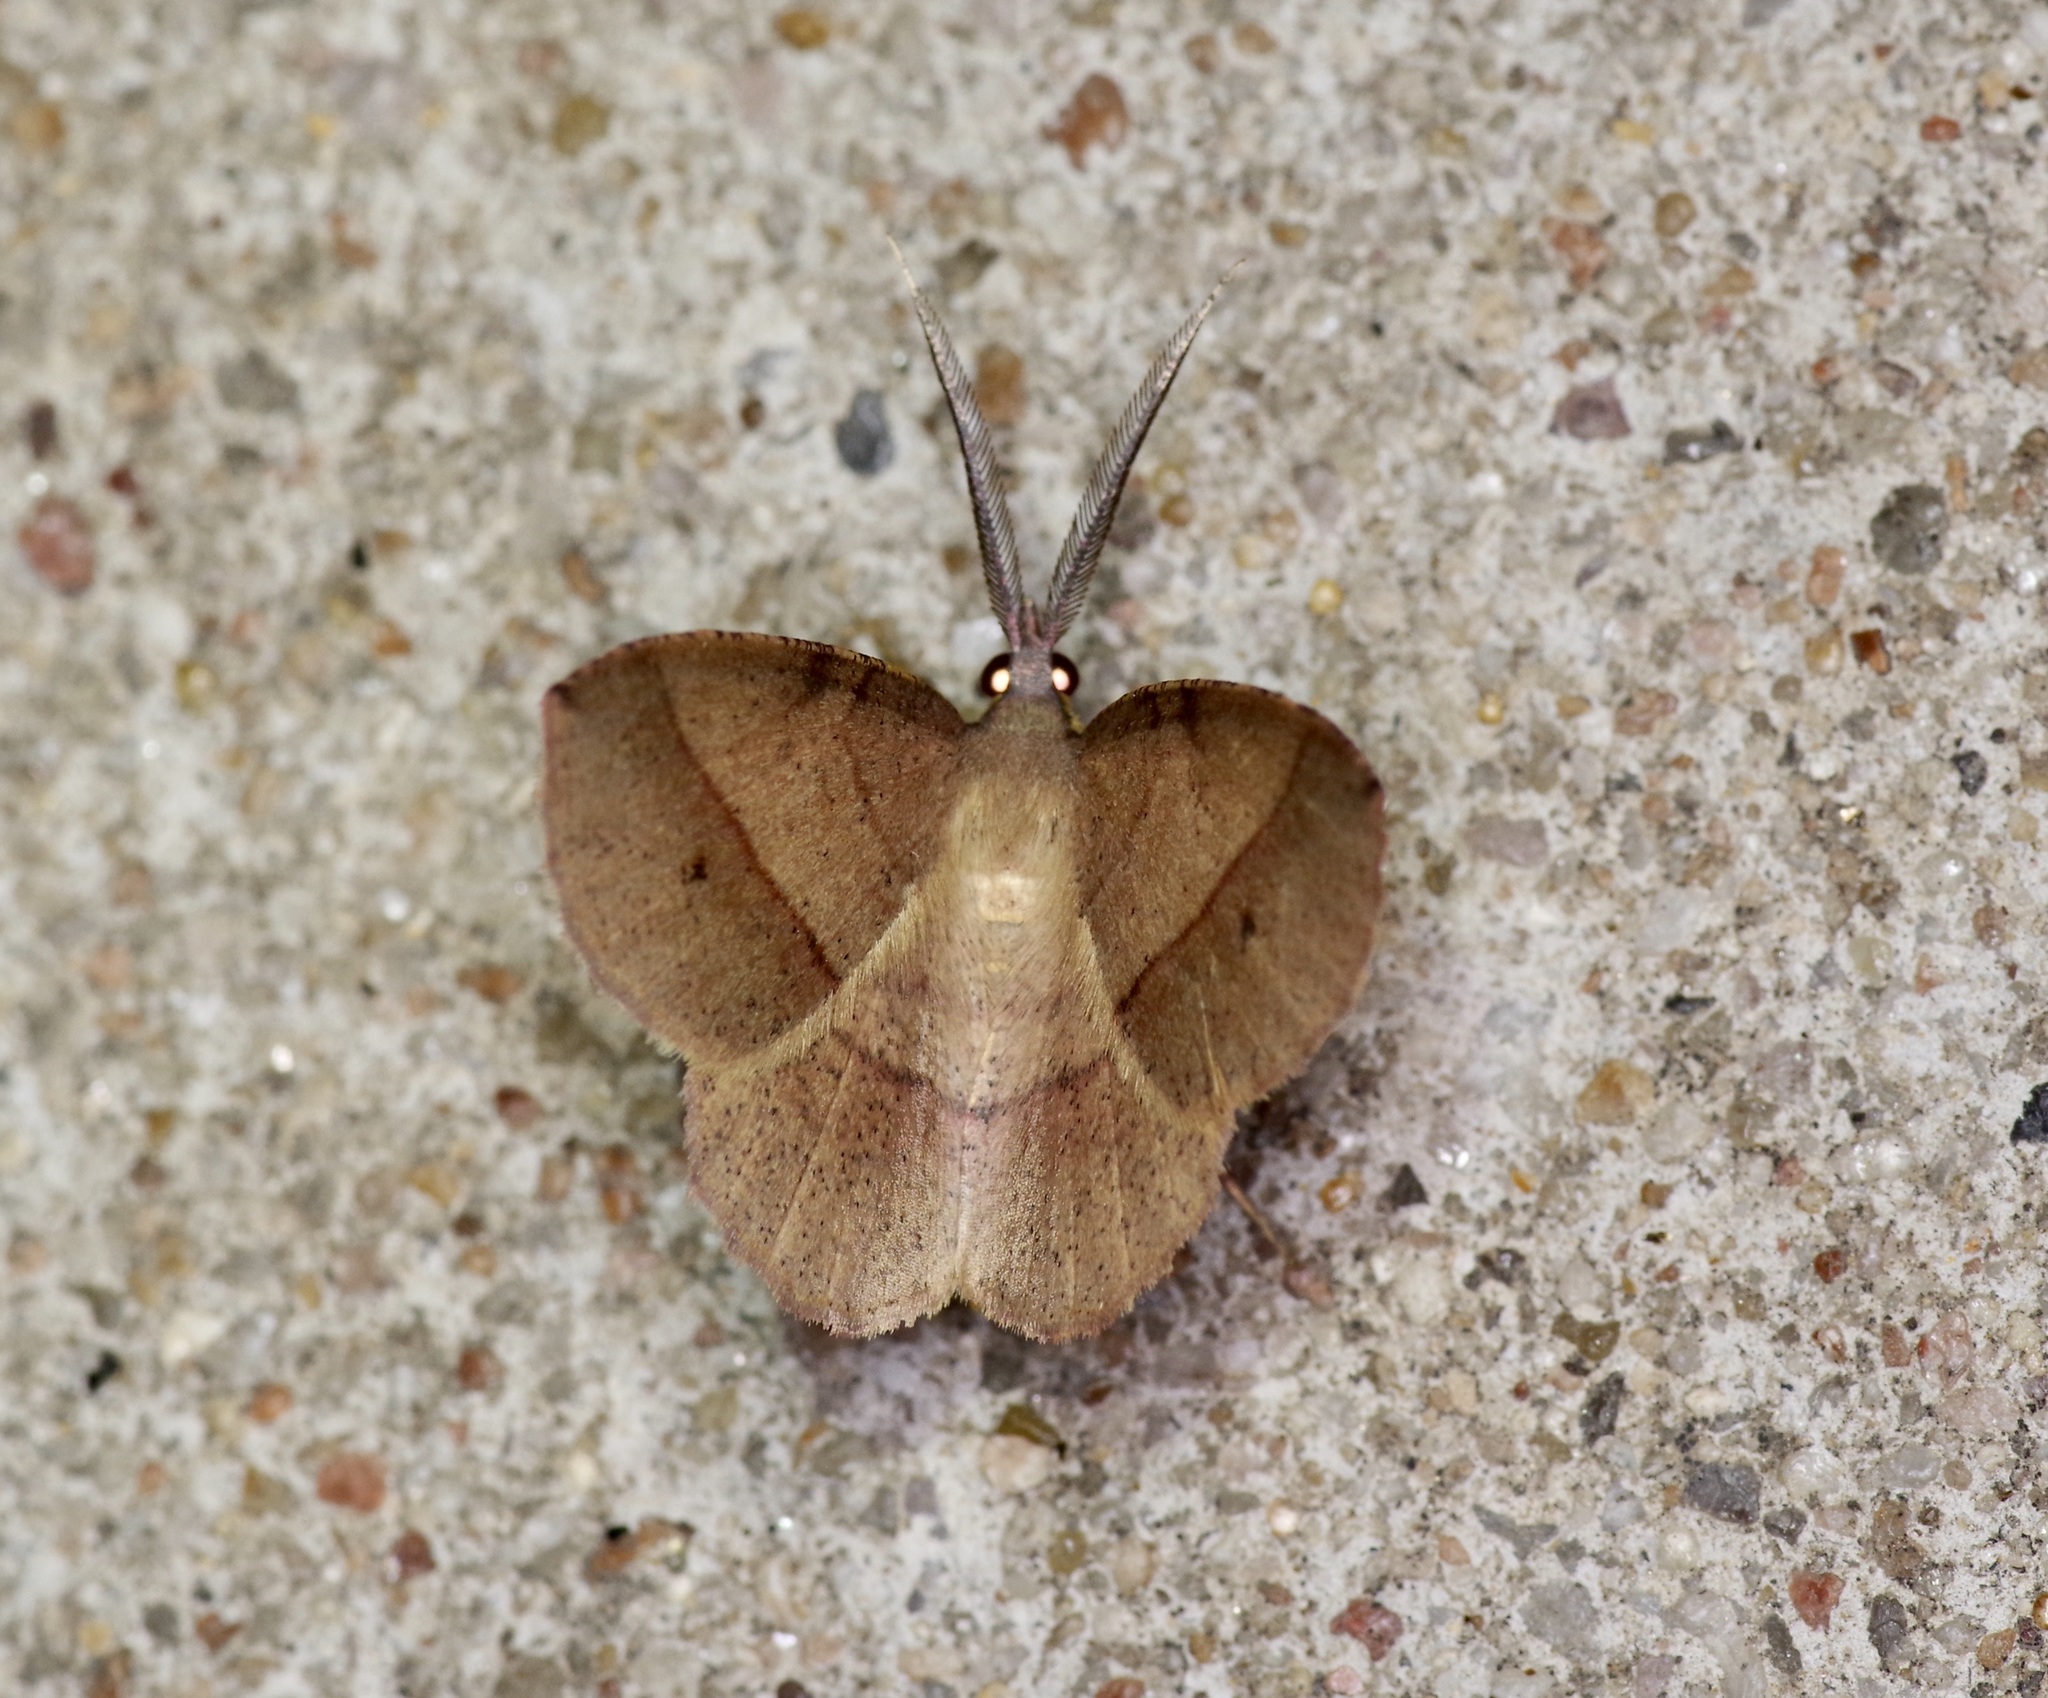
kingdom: Animalia
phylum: Arthropoda
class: Insecta
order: Lepidoptera
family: Geometridae
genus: Erastria
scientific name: Erastria cruentaria
